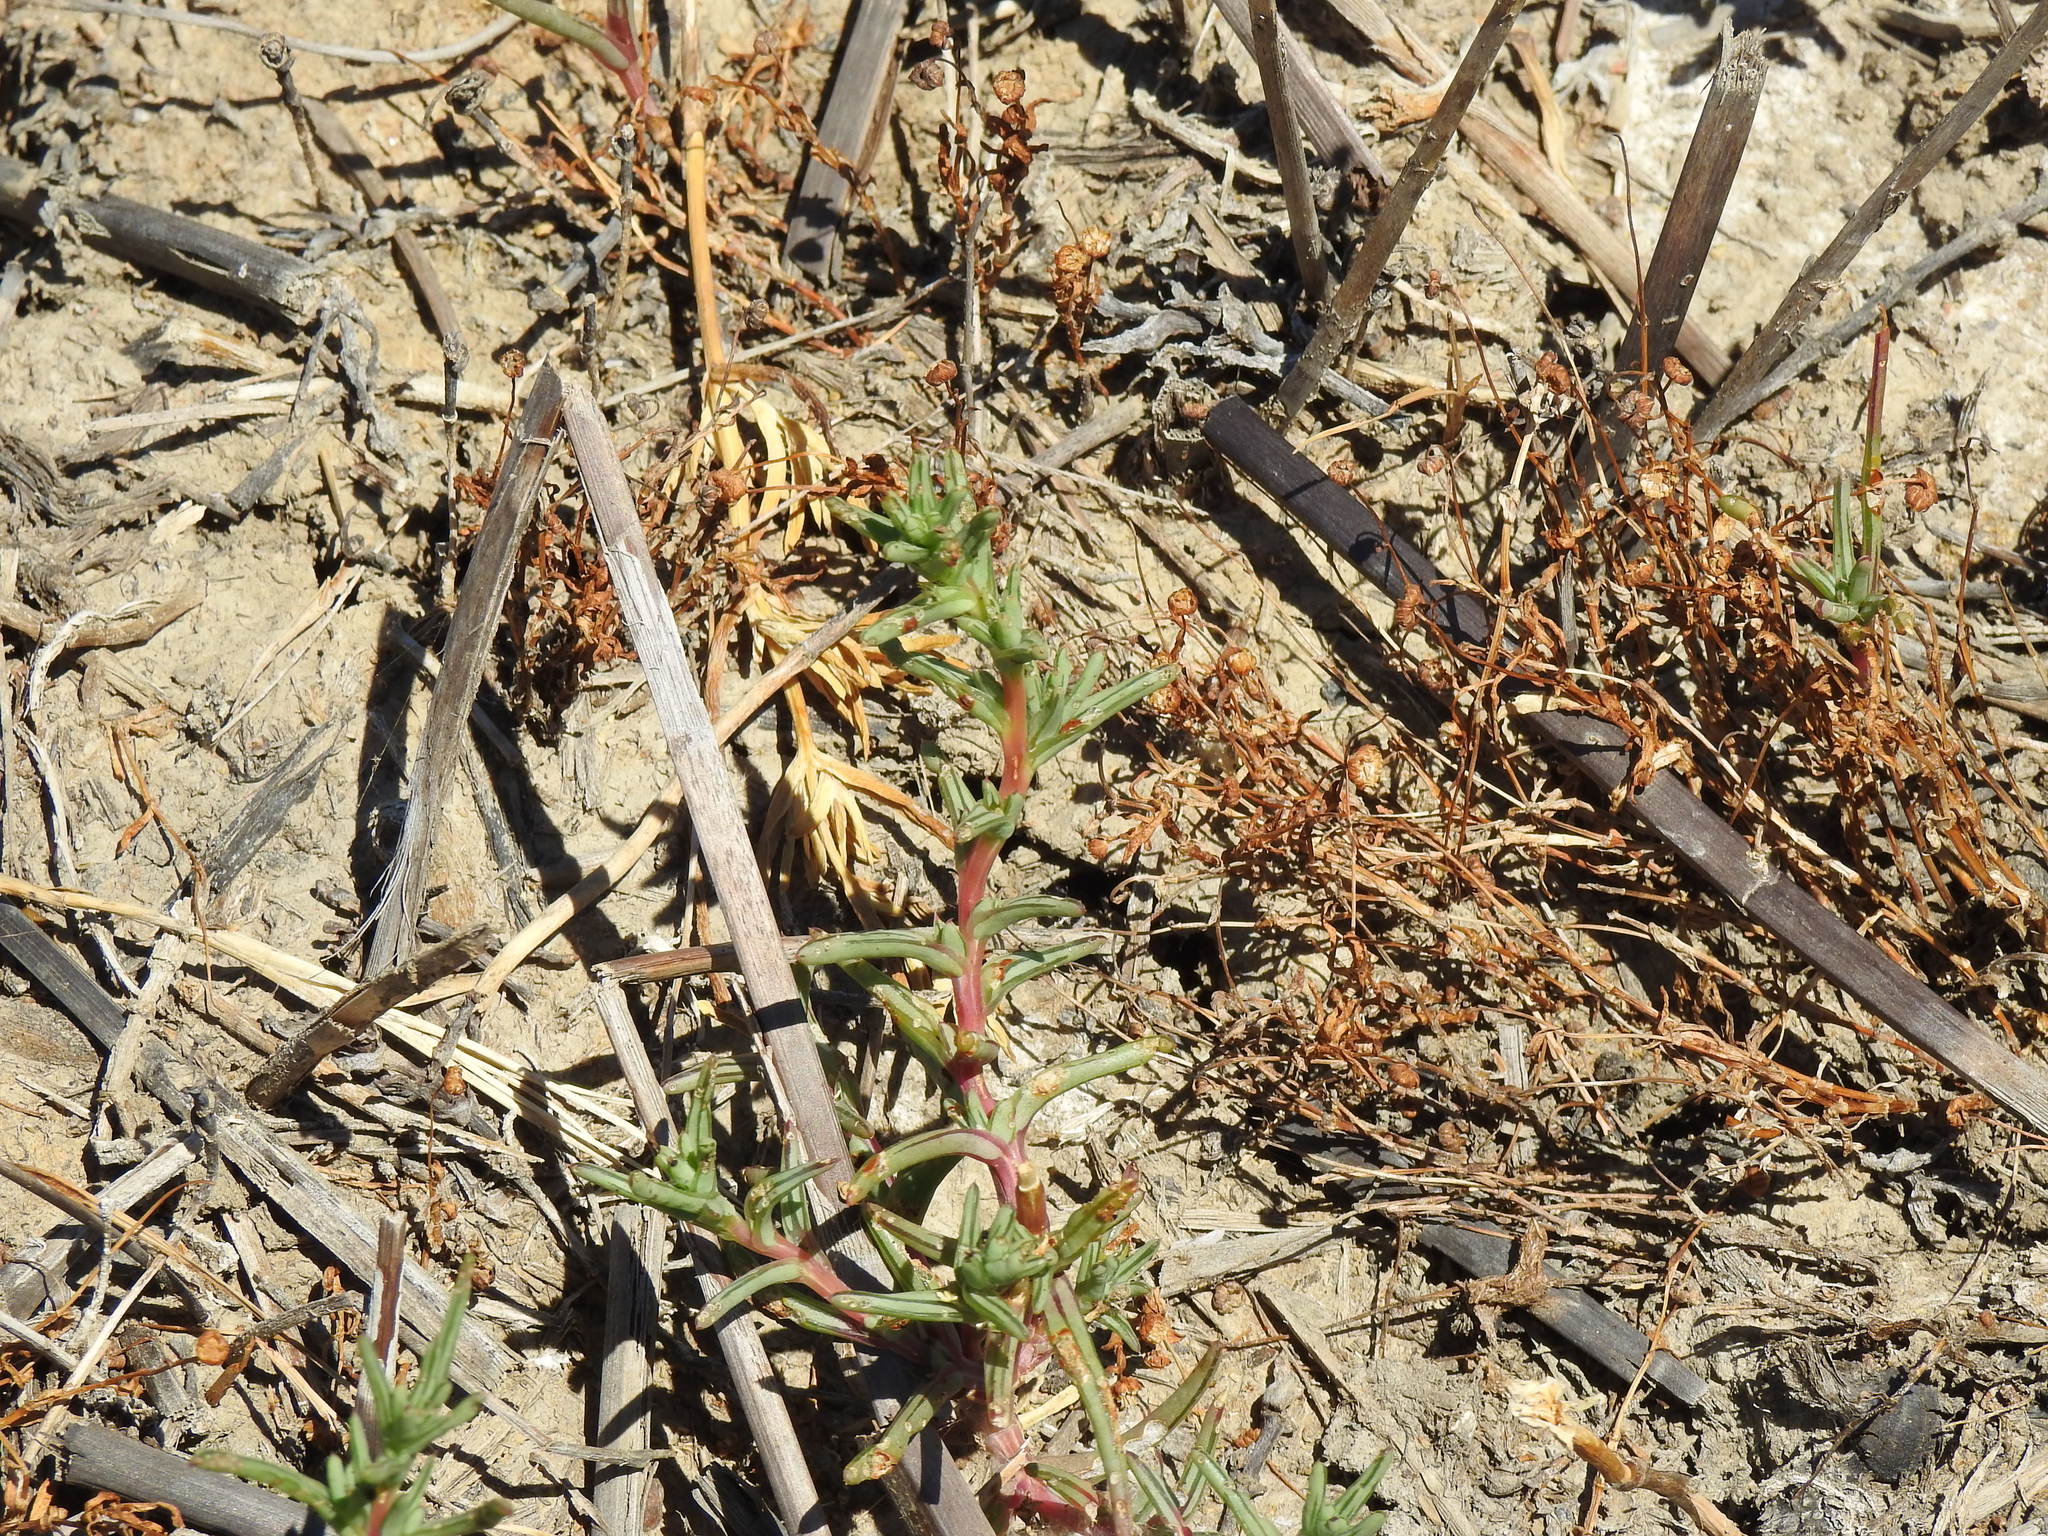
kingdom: Plantae
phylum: Tracheophyta
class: Magnoliopsida
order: Caryophyllales
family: Amaranthaceae
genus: Salsola
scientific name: Salsola soda
